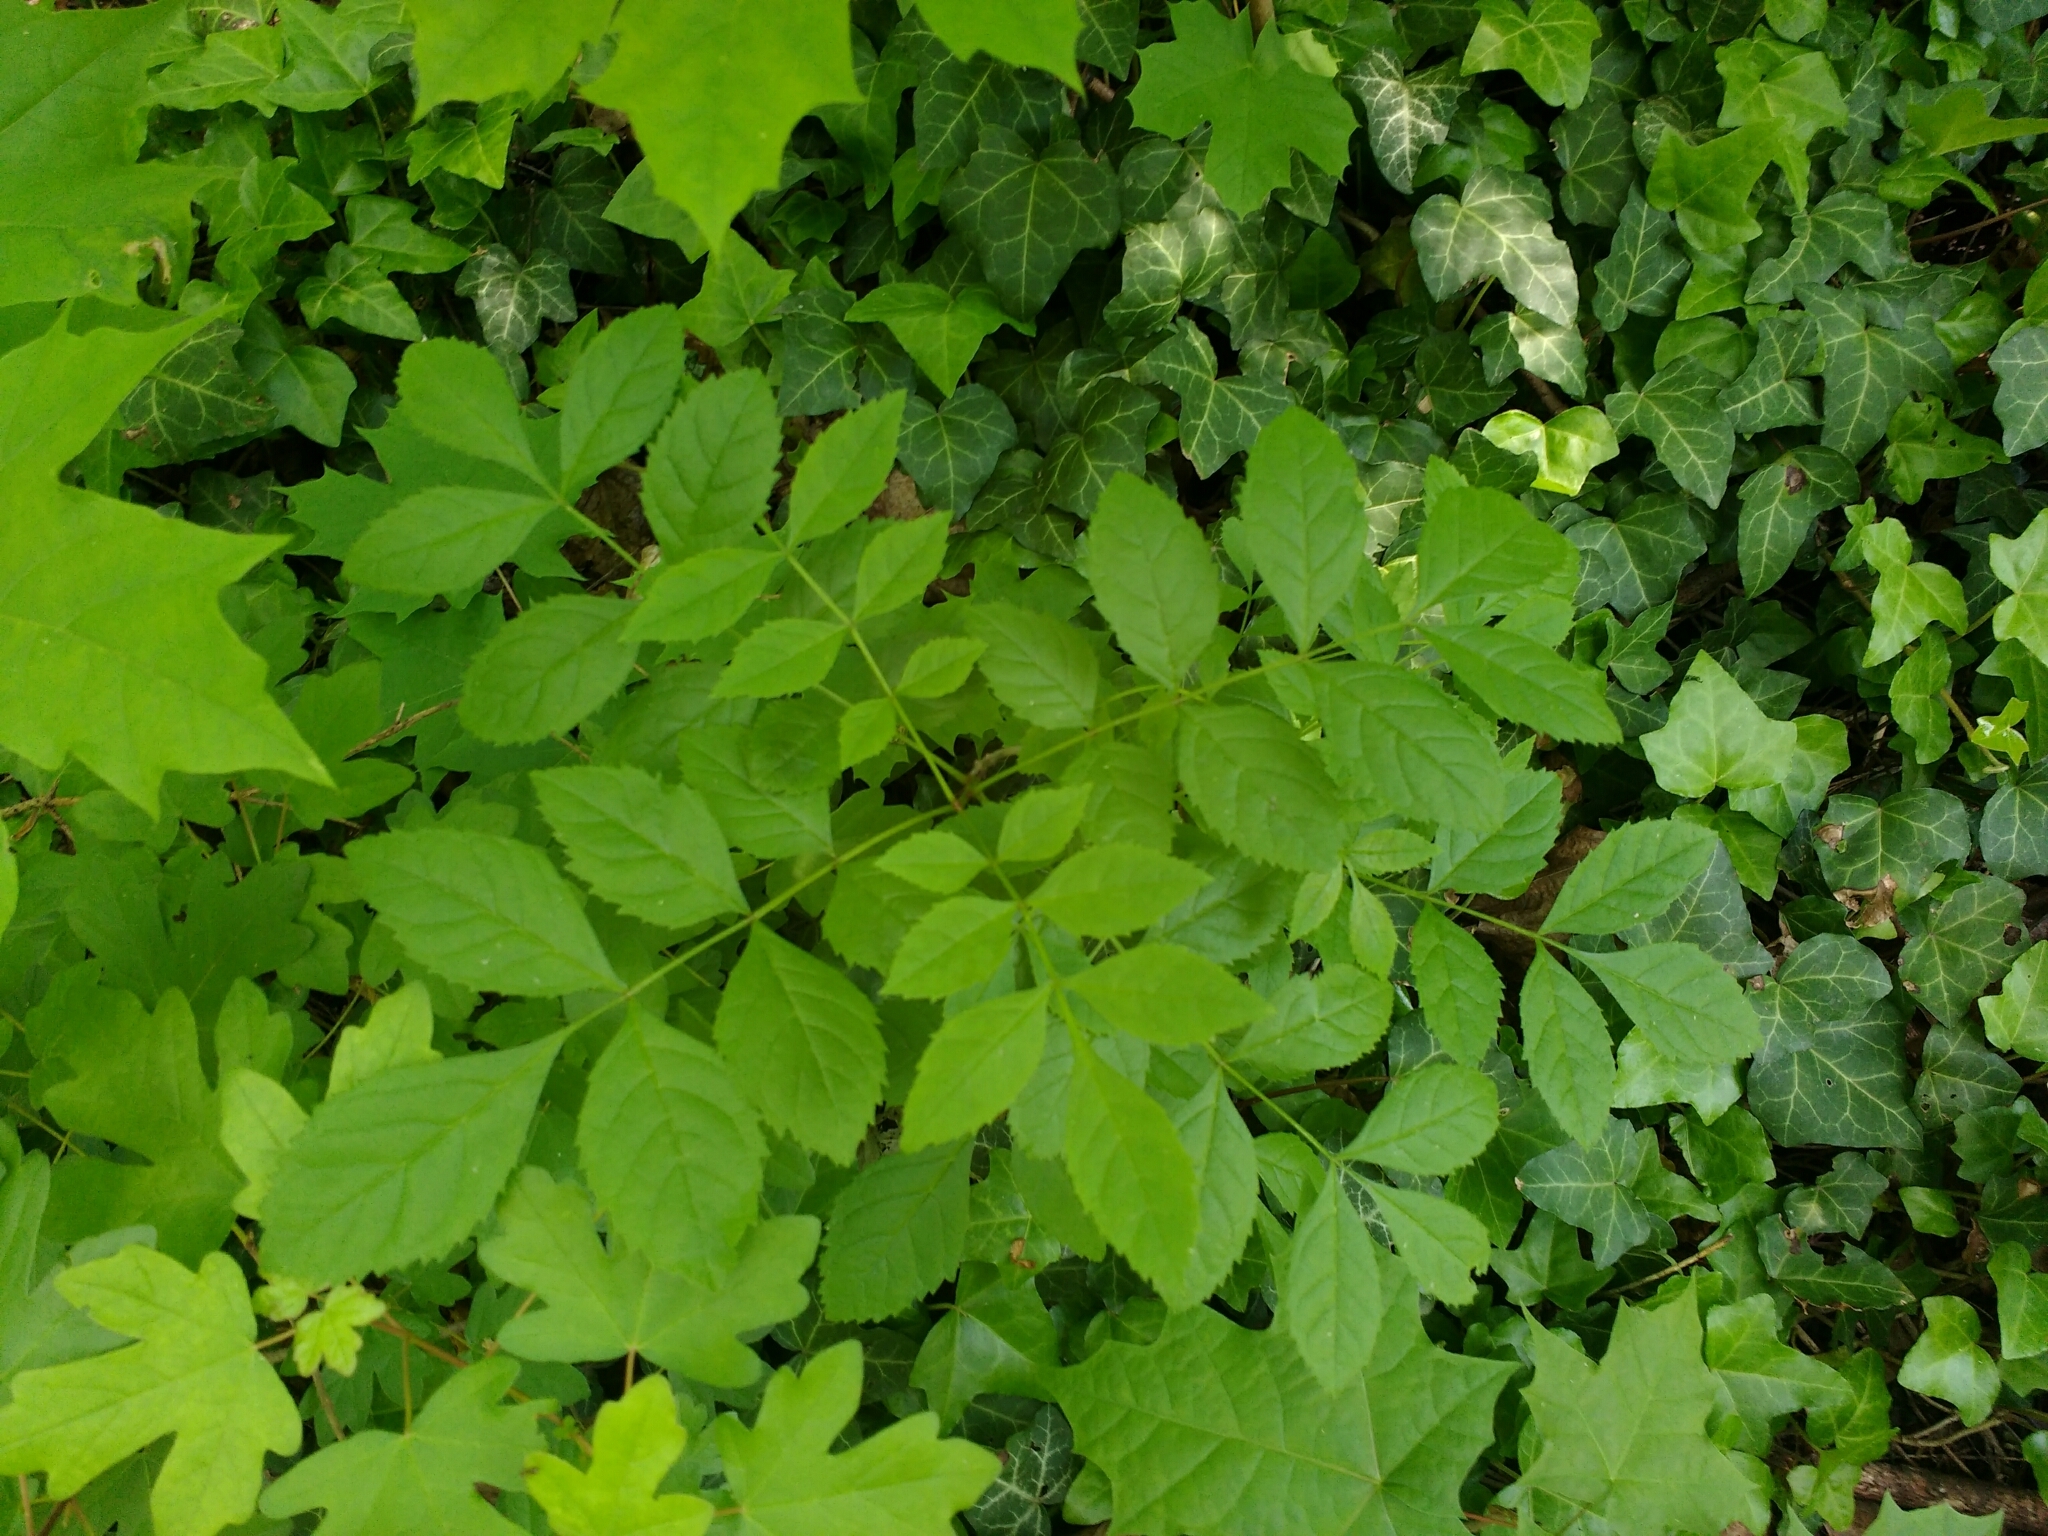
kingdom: Plantae
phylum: Tracheophyta
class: Magnoliopsida
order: Lamiales
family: Oleaceae
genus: Fraxinus
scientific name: Fraxinus excelsior
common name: European ash
